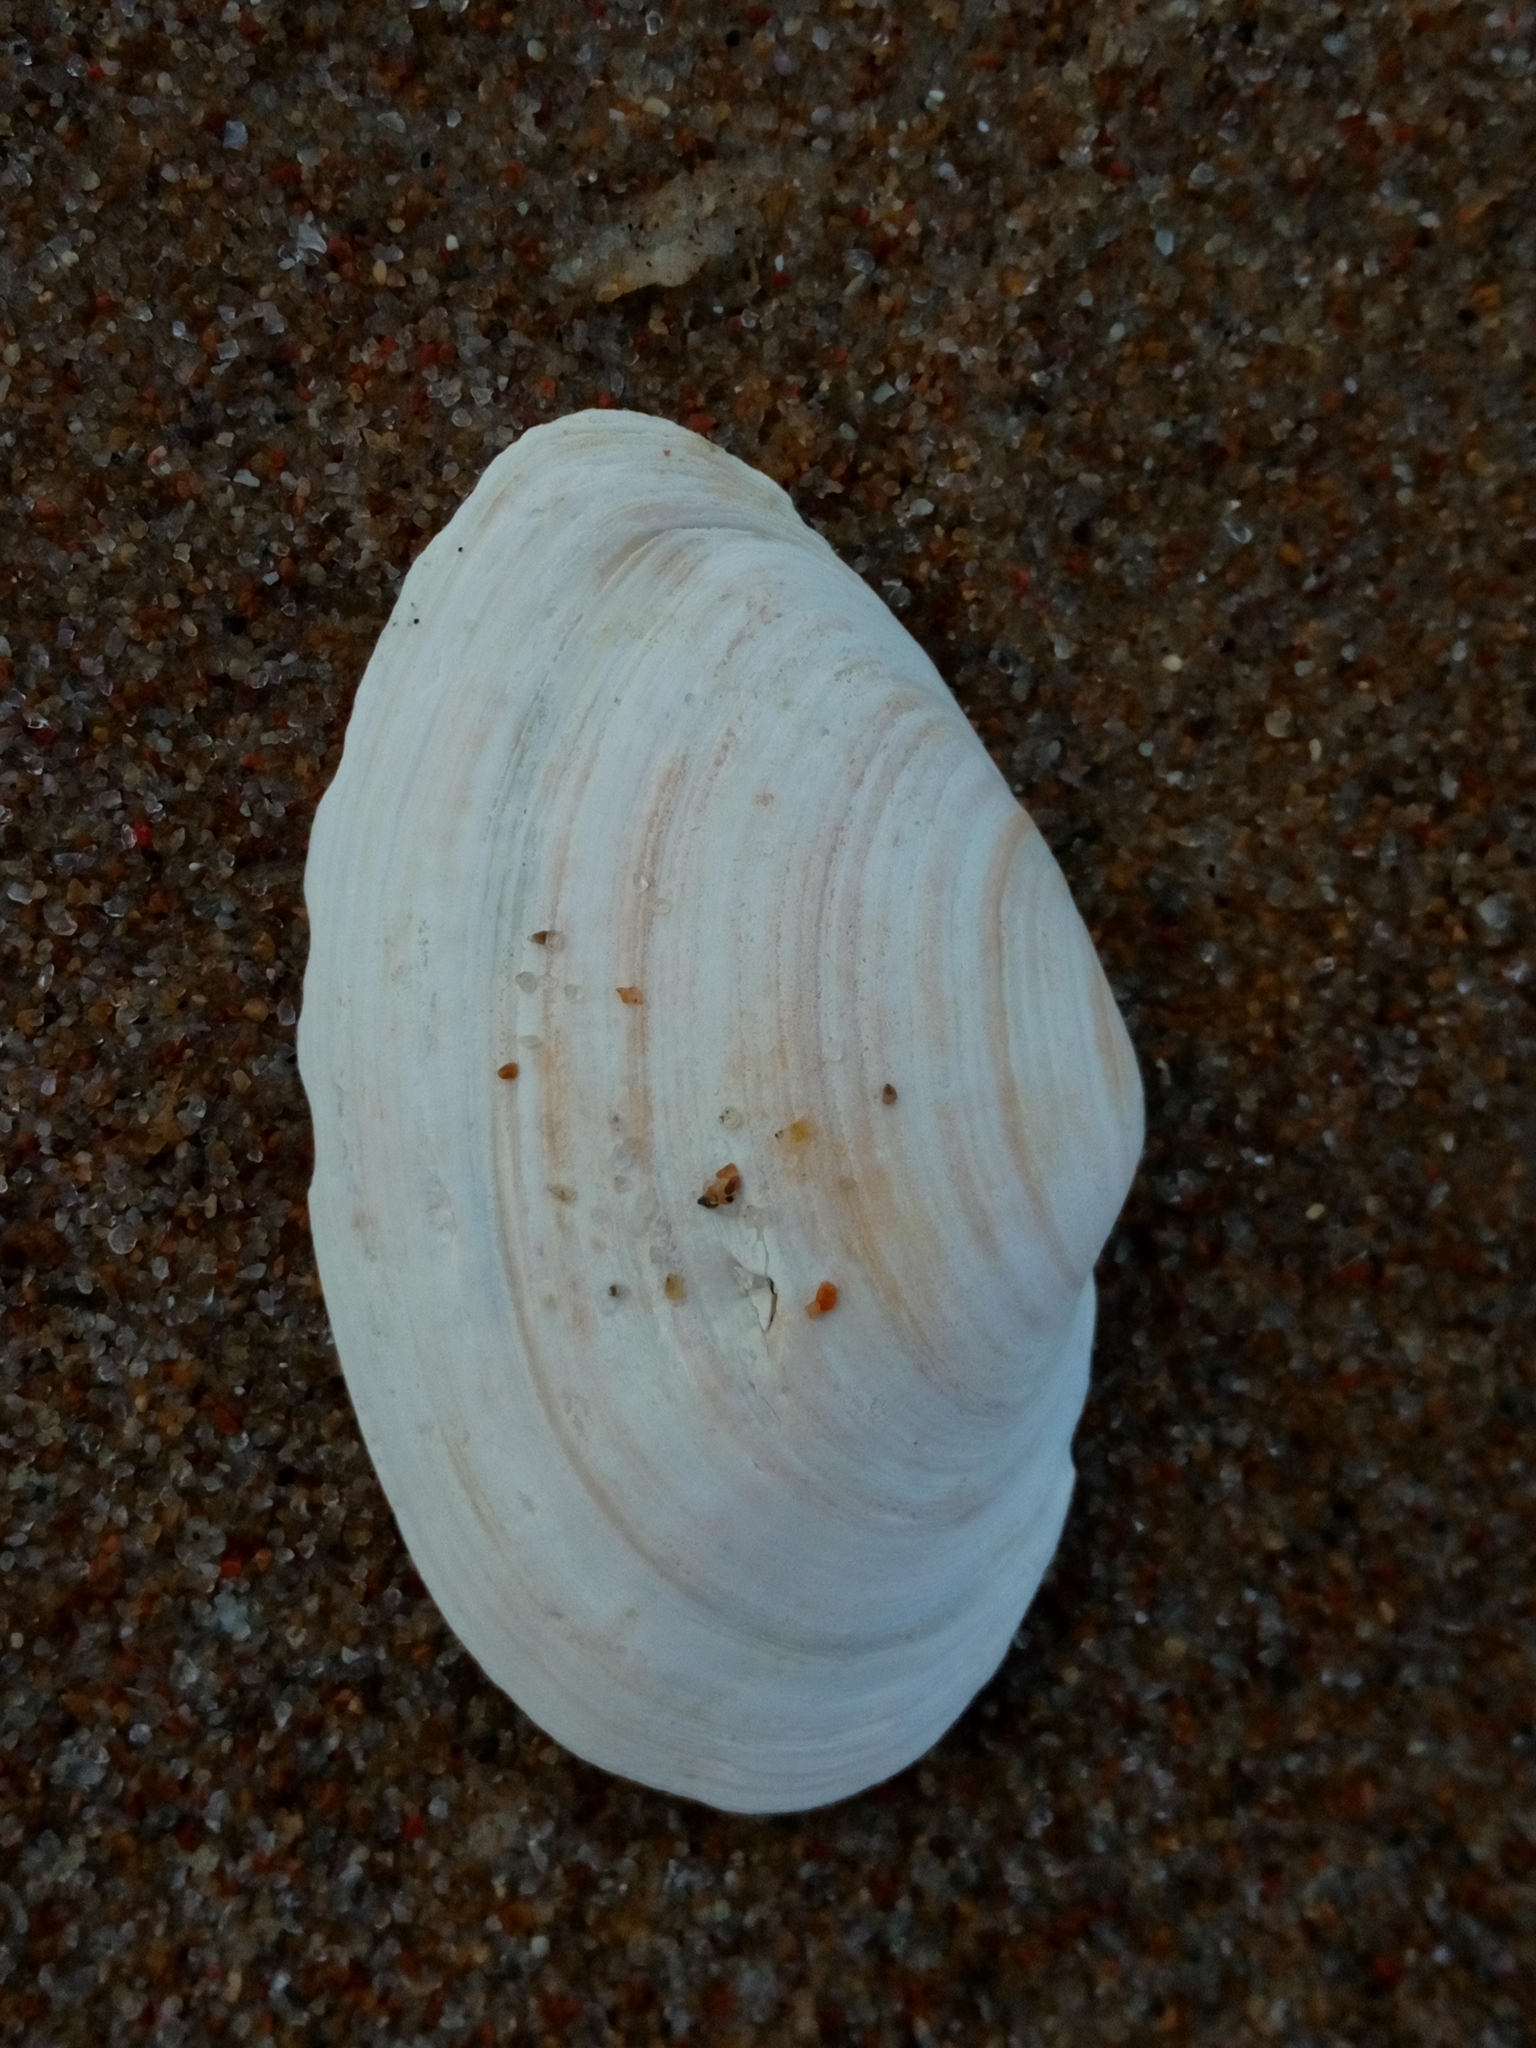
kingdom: Animalia
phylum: Mollusca
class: Bivalvia
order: Myida
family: Myidae
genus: Mya
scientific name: Mya arenaria
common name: Soft-shelled clam
